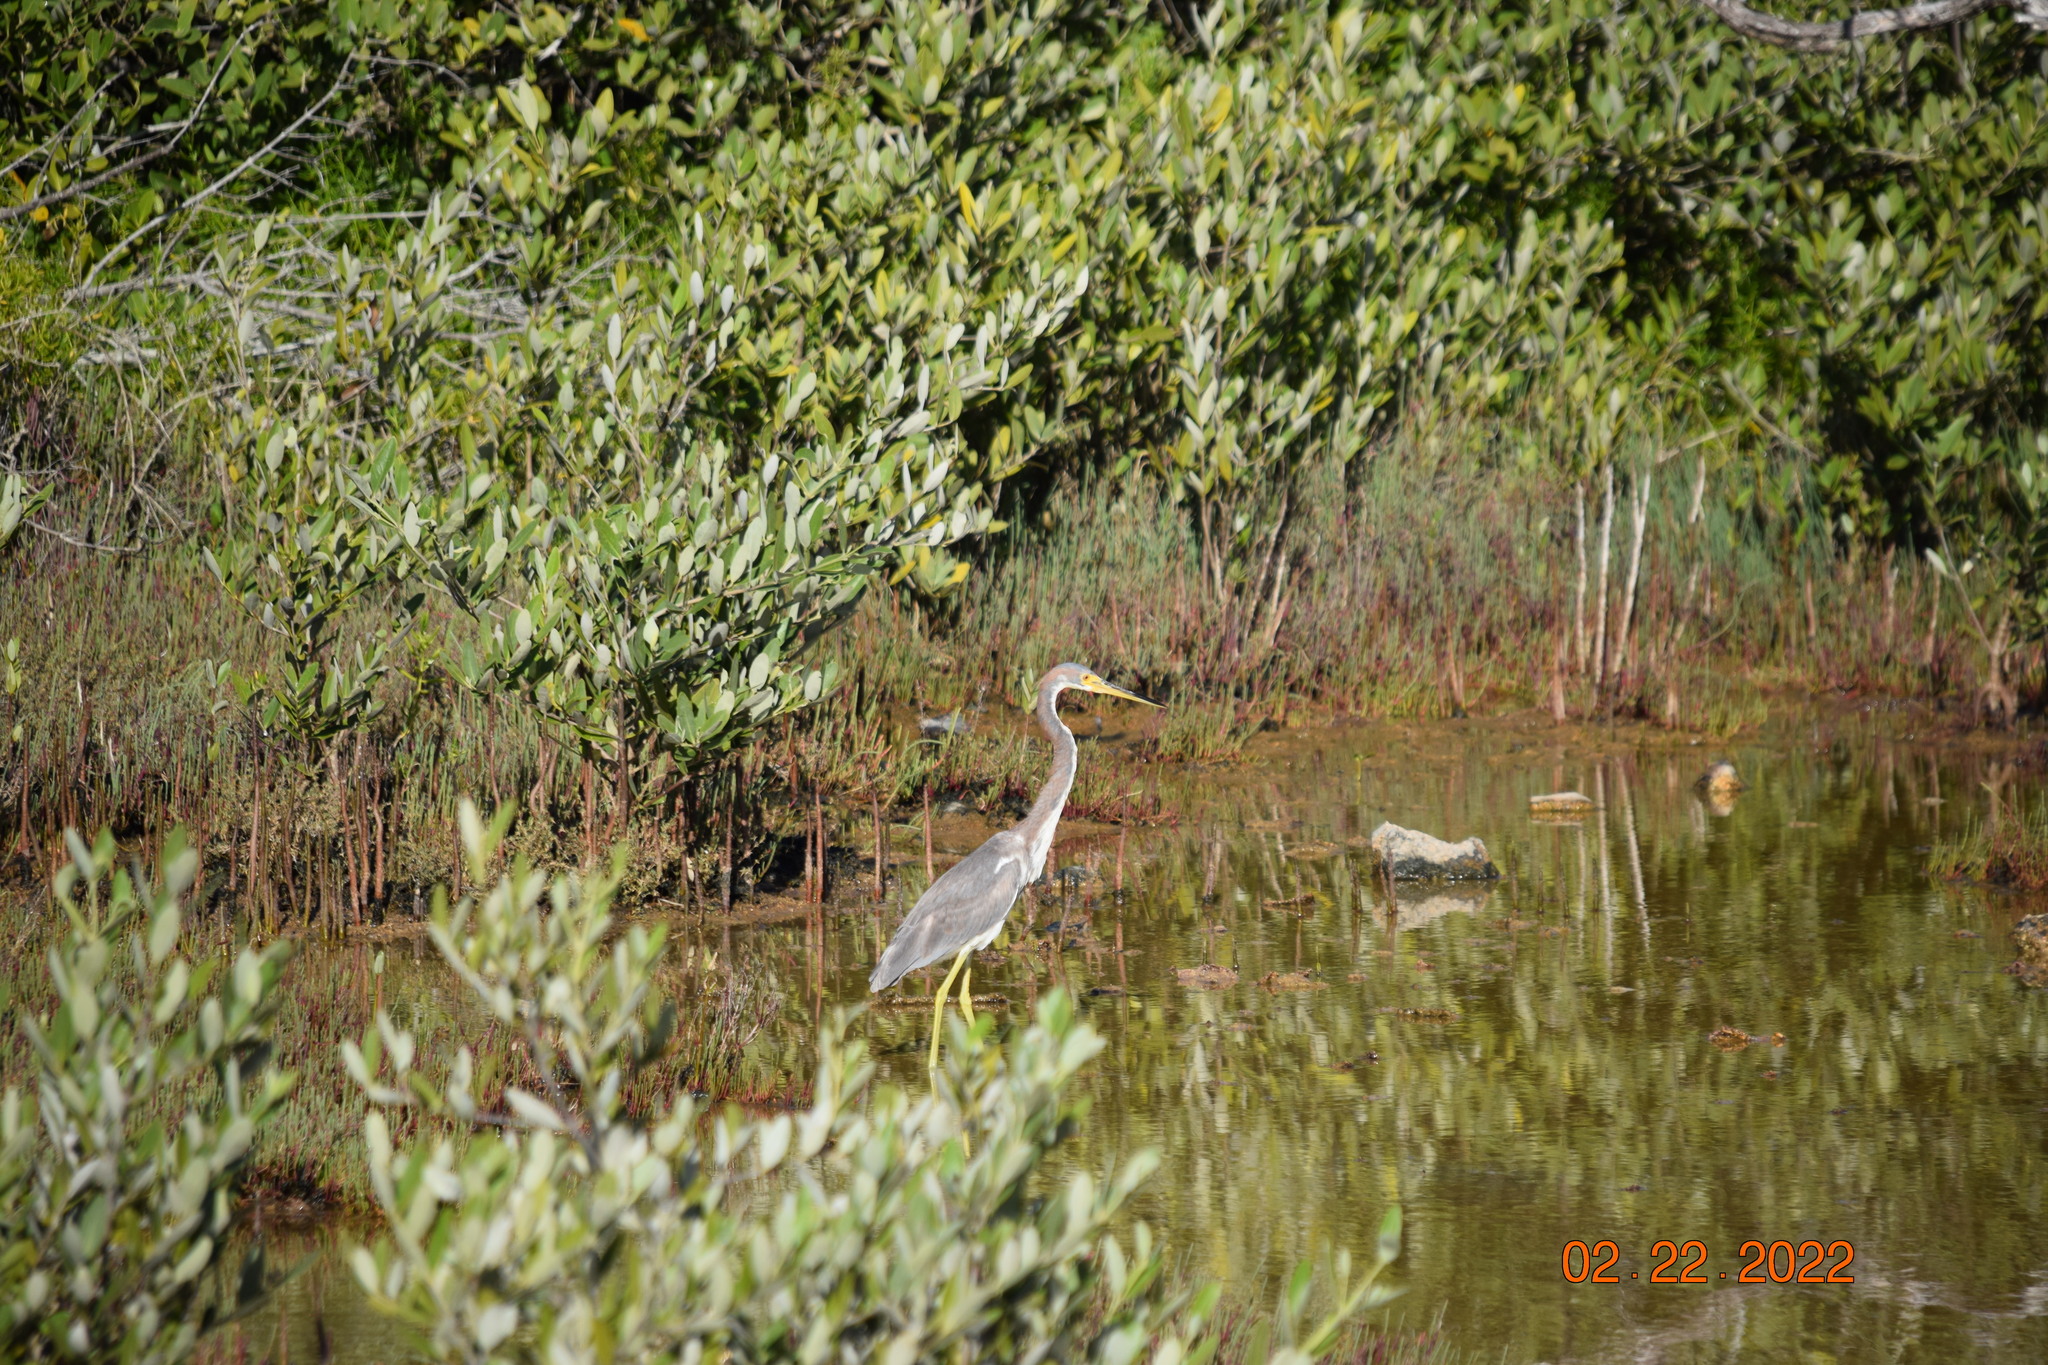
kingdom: Animalia
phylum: Chordata
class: Aves
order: Pelecaniformes
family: Ardeidae
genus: Egretta
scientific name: Egretta tricolor
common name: Tricolored heron
